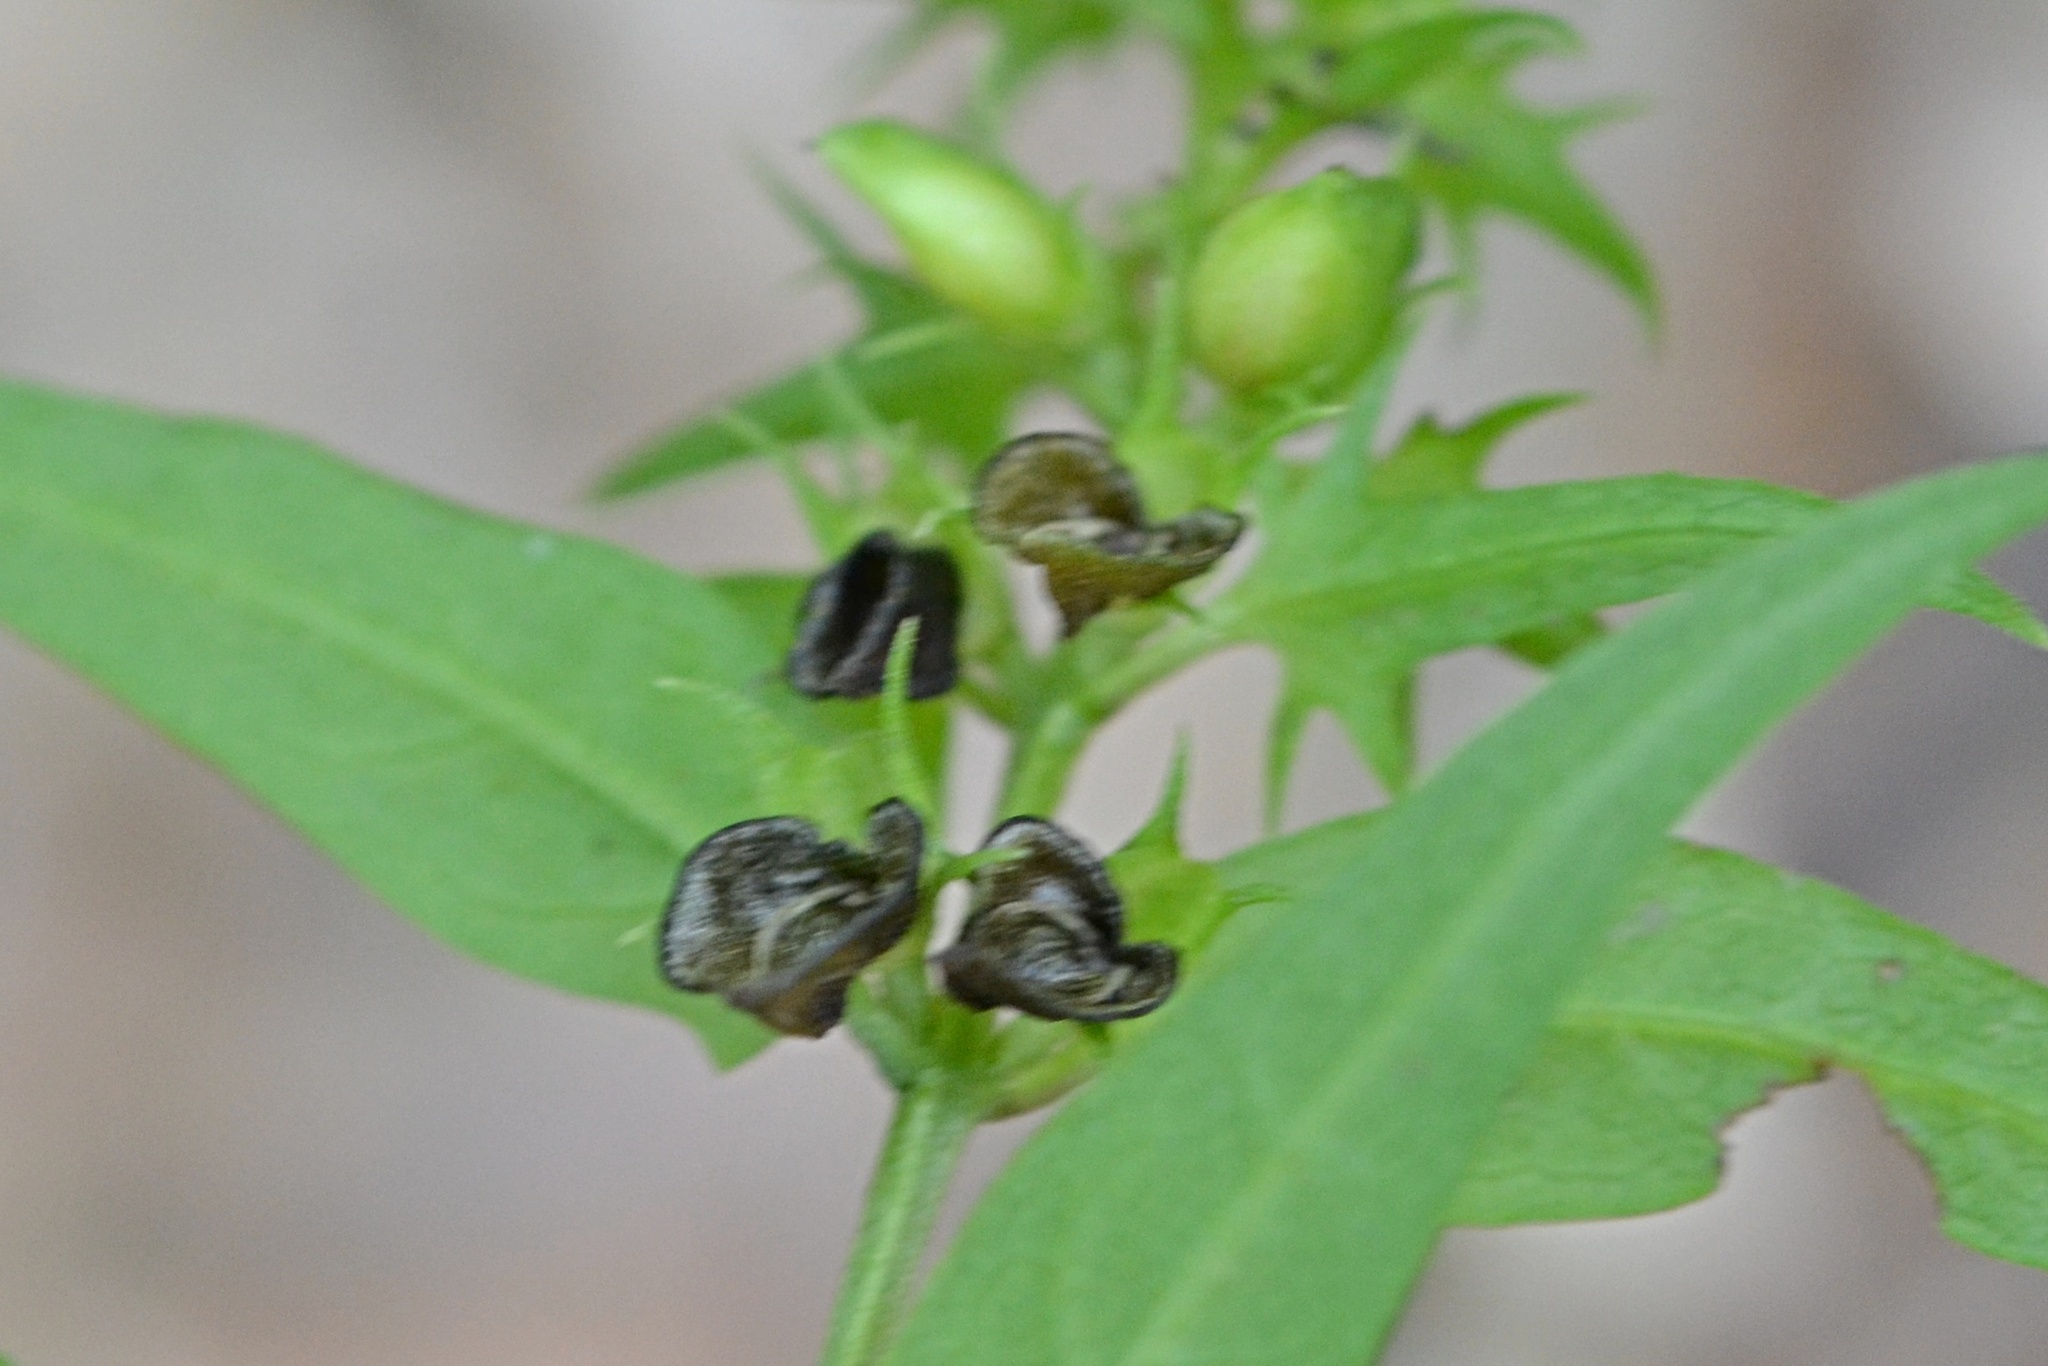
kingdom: Plantae
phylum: Tracheophyta
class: Magnoliopsida
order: Lamiales
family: Orobanchaceae
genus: Melampyrum
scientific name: Melampyrum pratense
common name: Common cow-wheat
